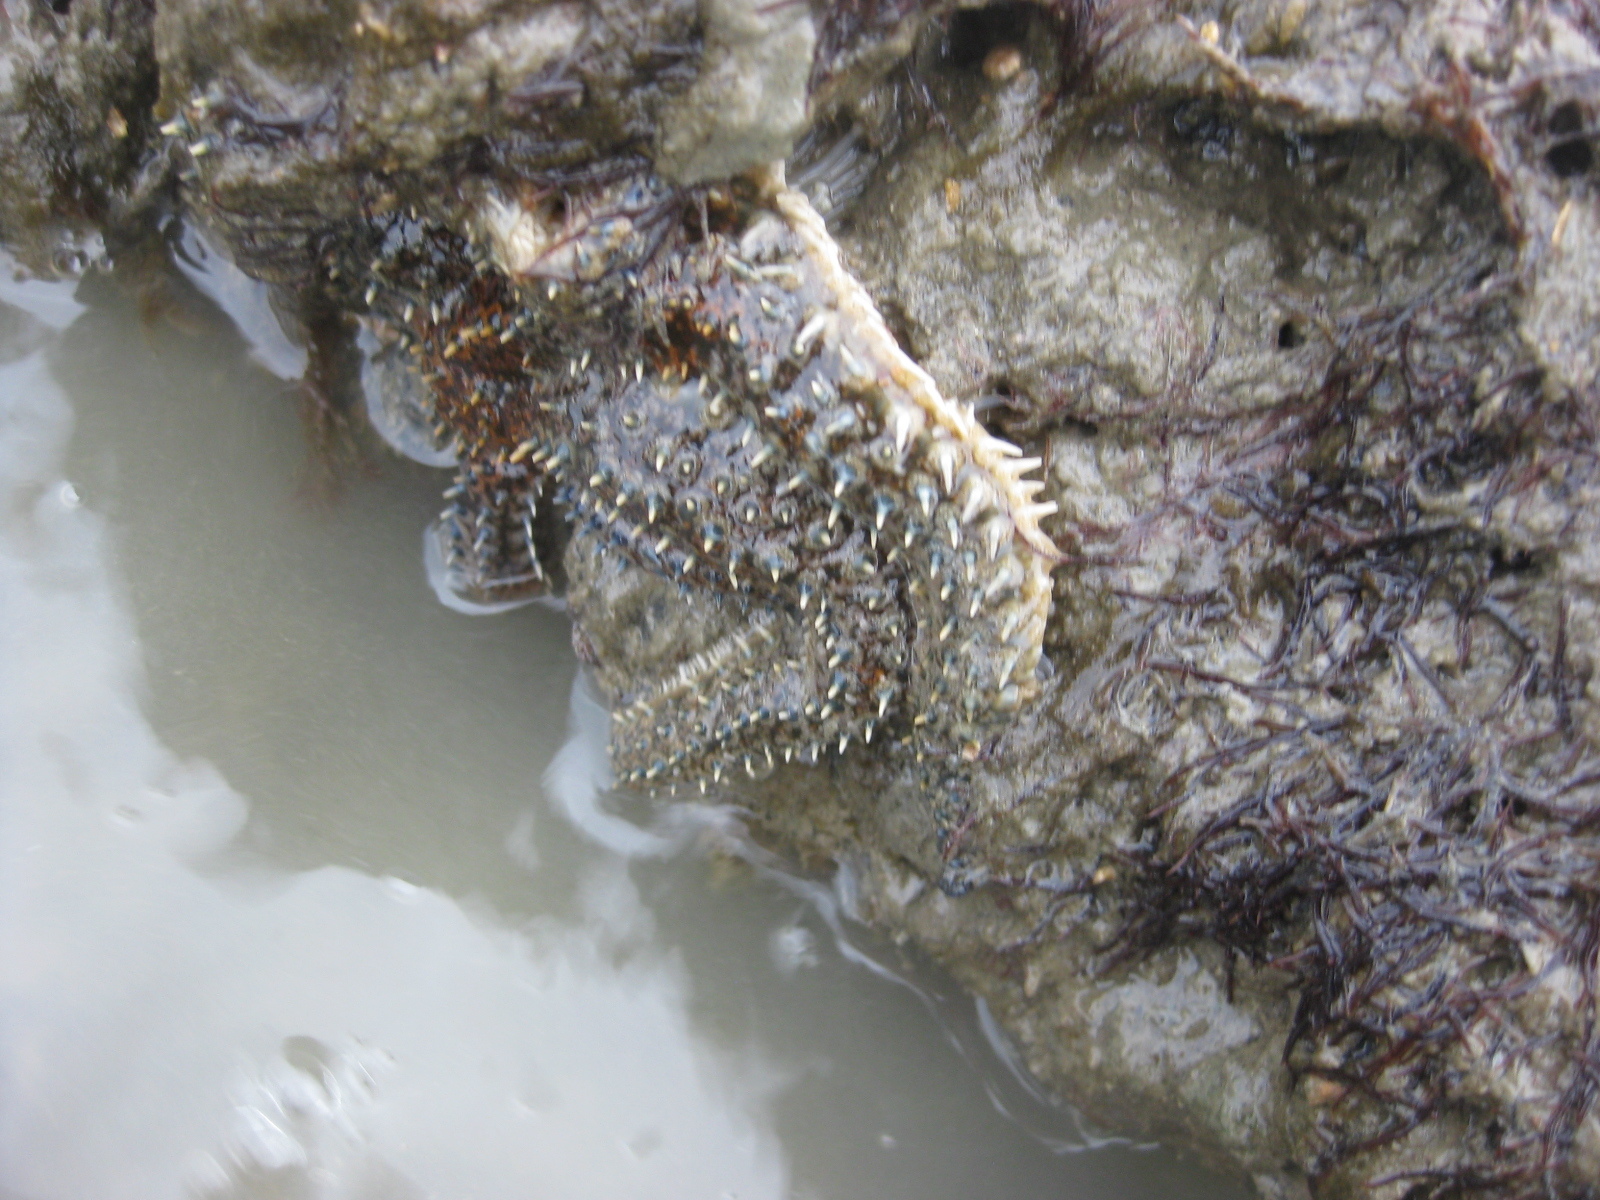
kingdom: Animalia
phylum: Echinodermata
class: Asteroidea
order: Forcipulatida
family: Asteriidae
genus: Coscinasterias
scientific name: Coscinasterias muricata
